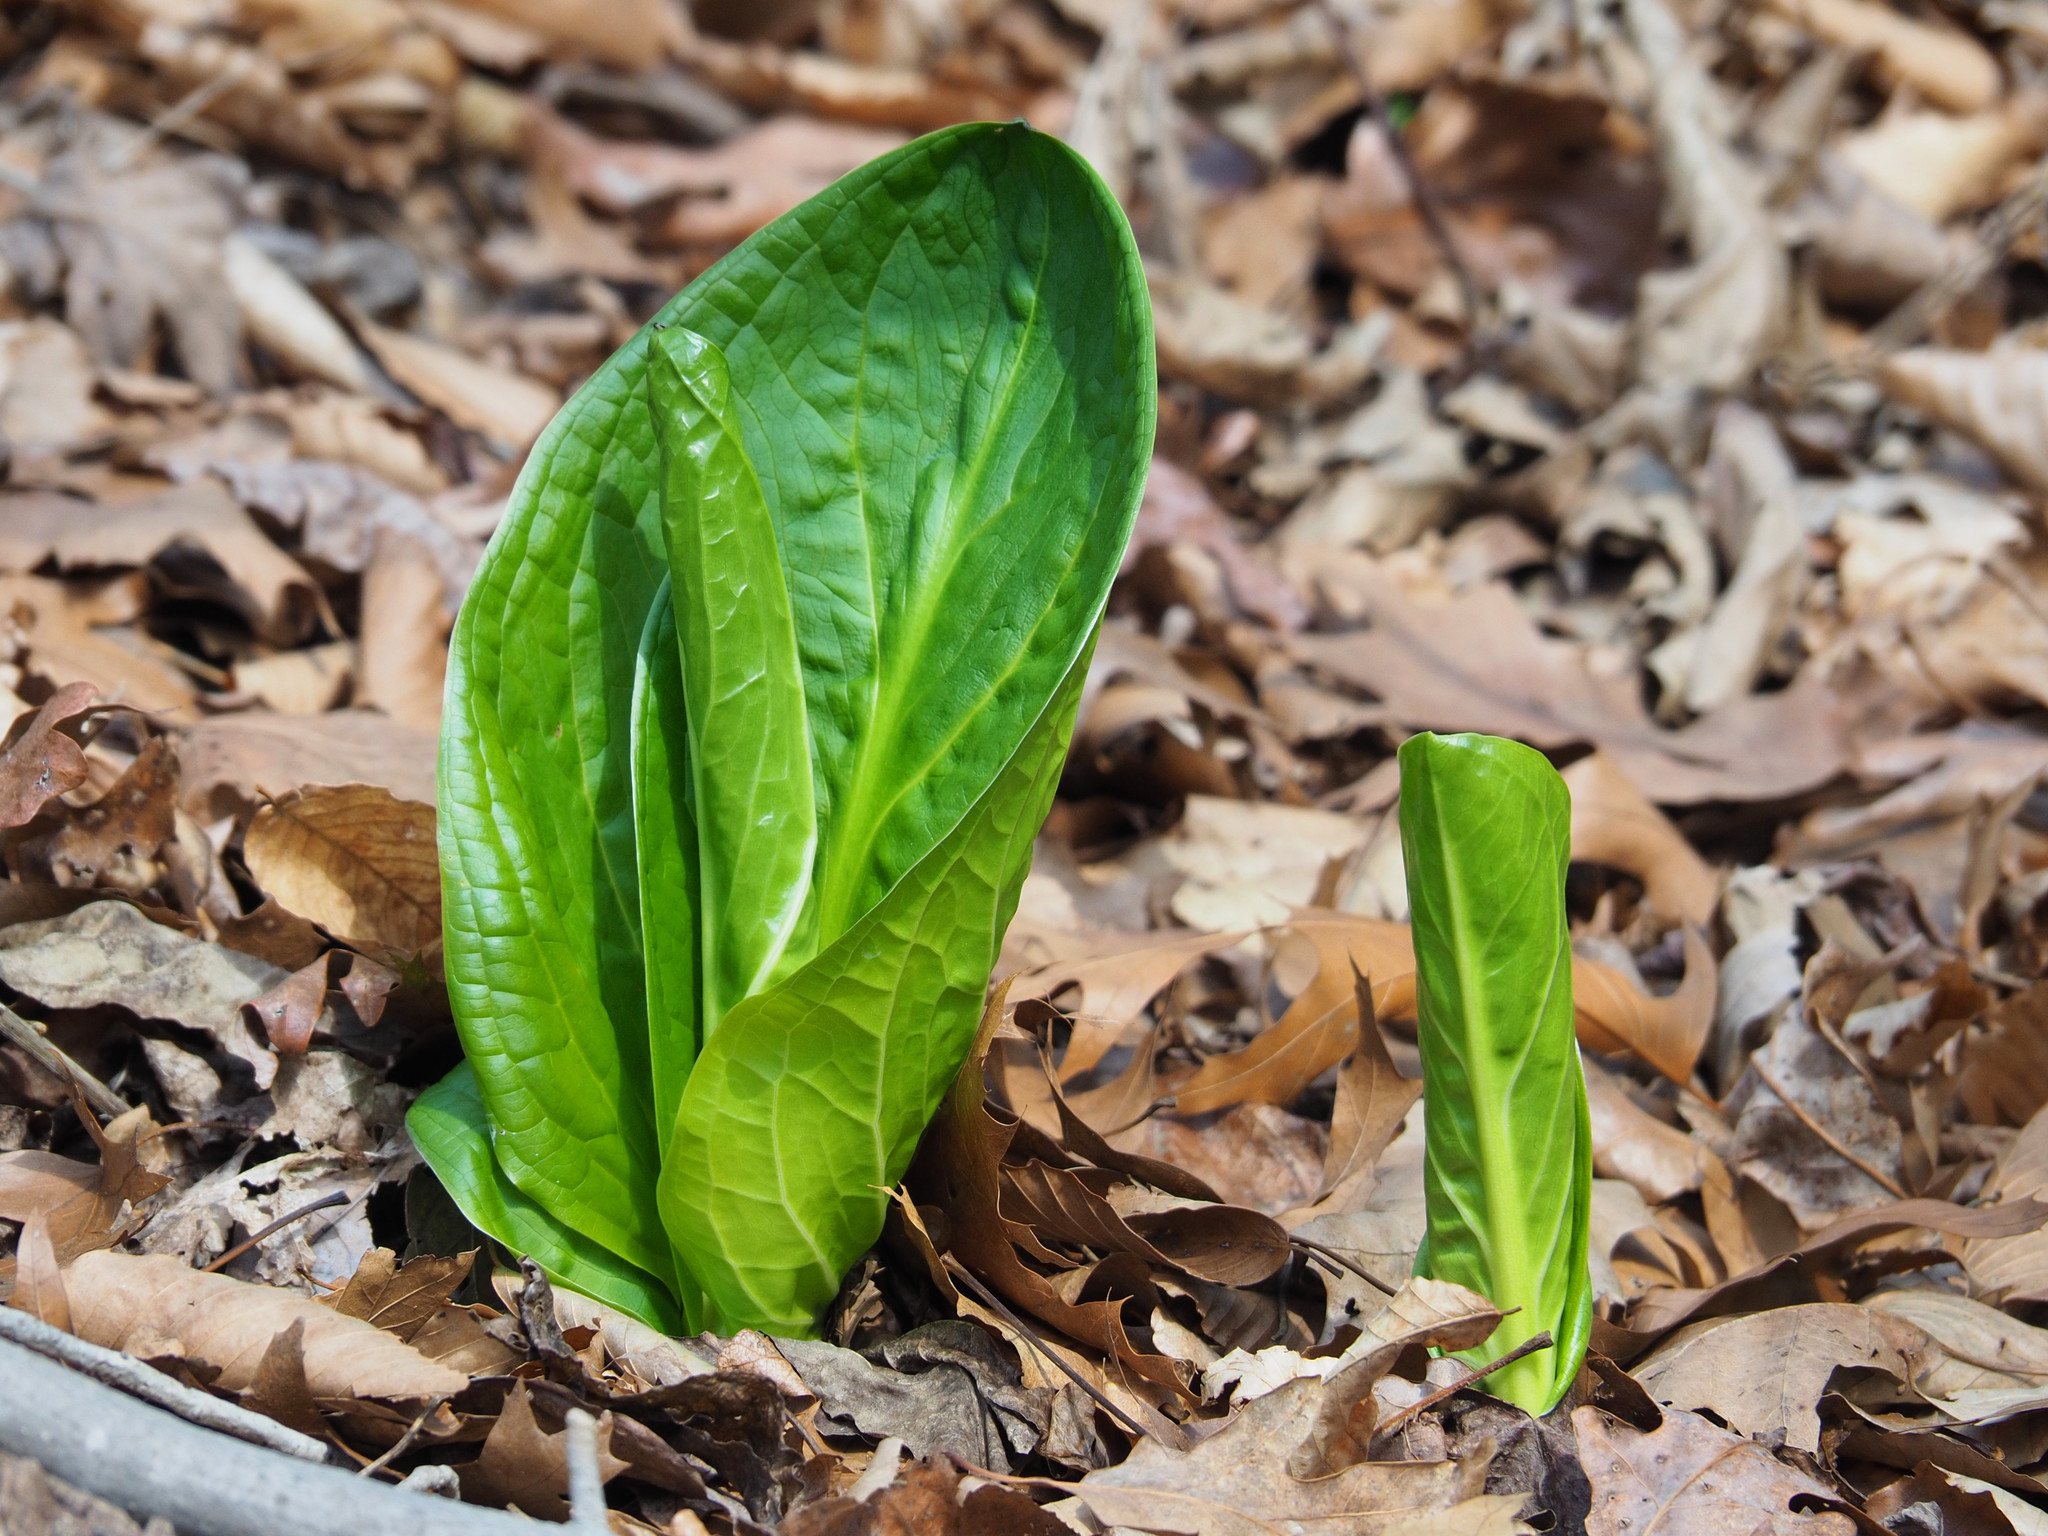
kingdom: Plantae
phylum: Tracheophyta
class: Liliopsida
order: Alismatales
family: Araceae
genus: Symplocarpus
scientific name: Symplocarpus foetidus
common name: Eastern skunk cabbage
